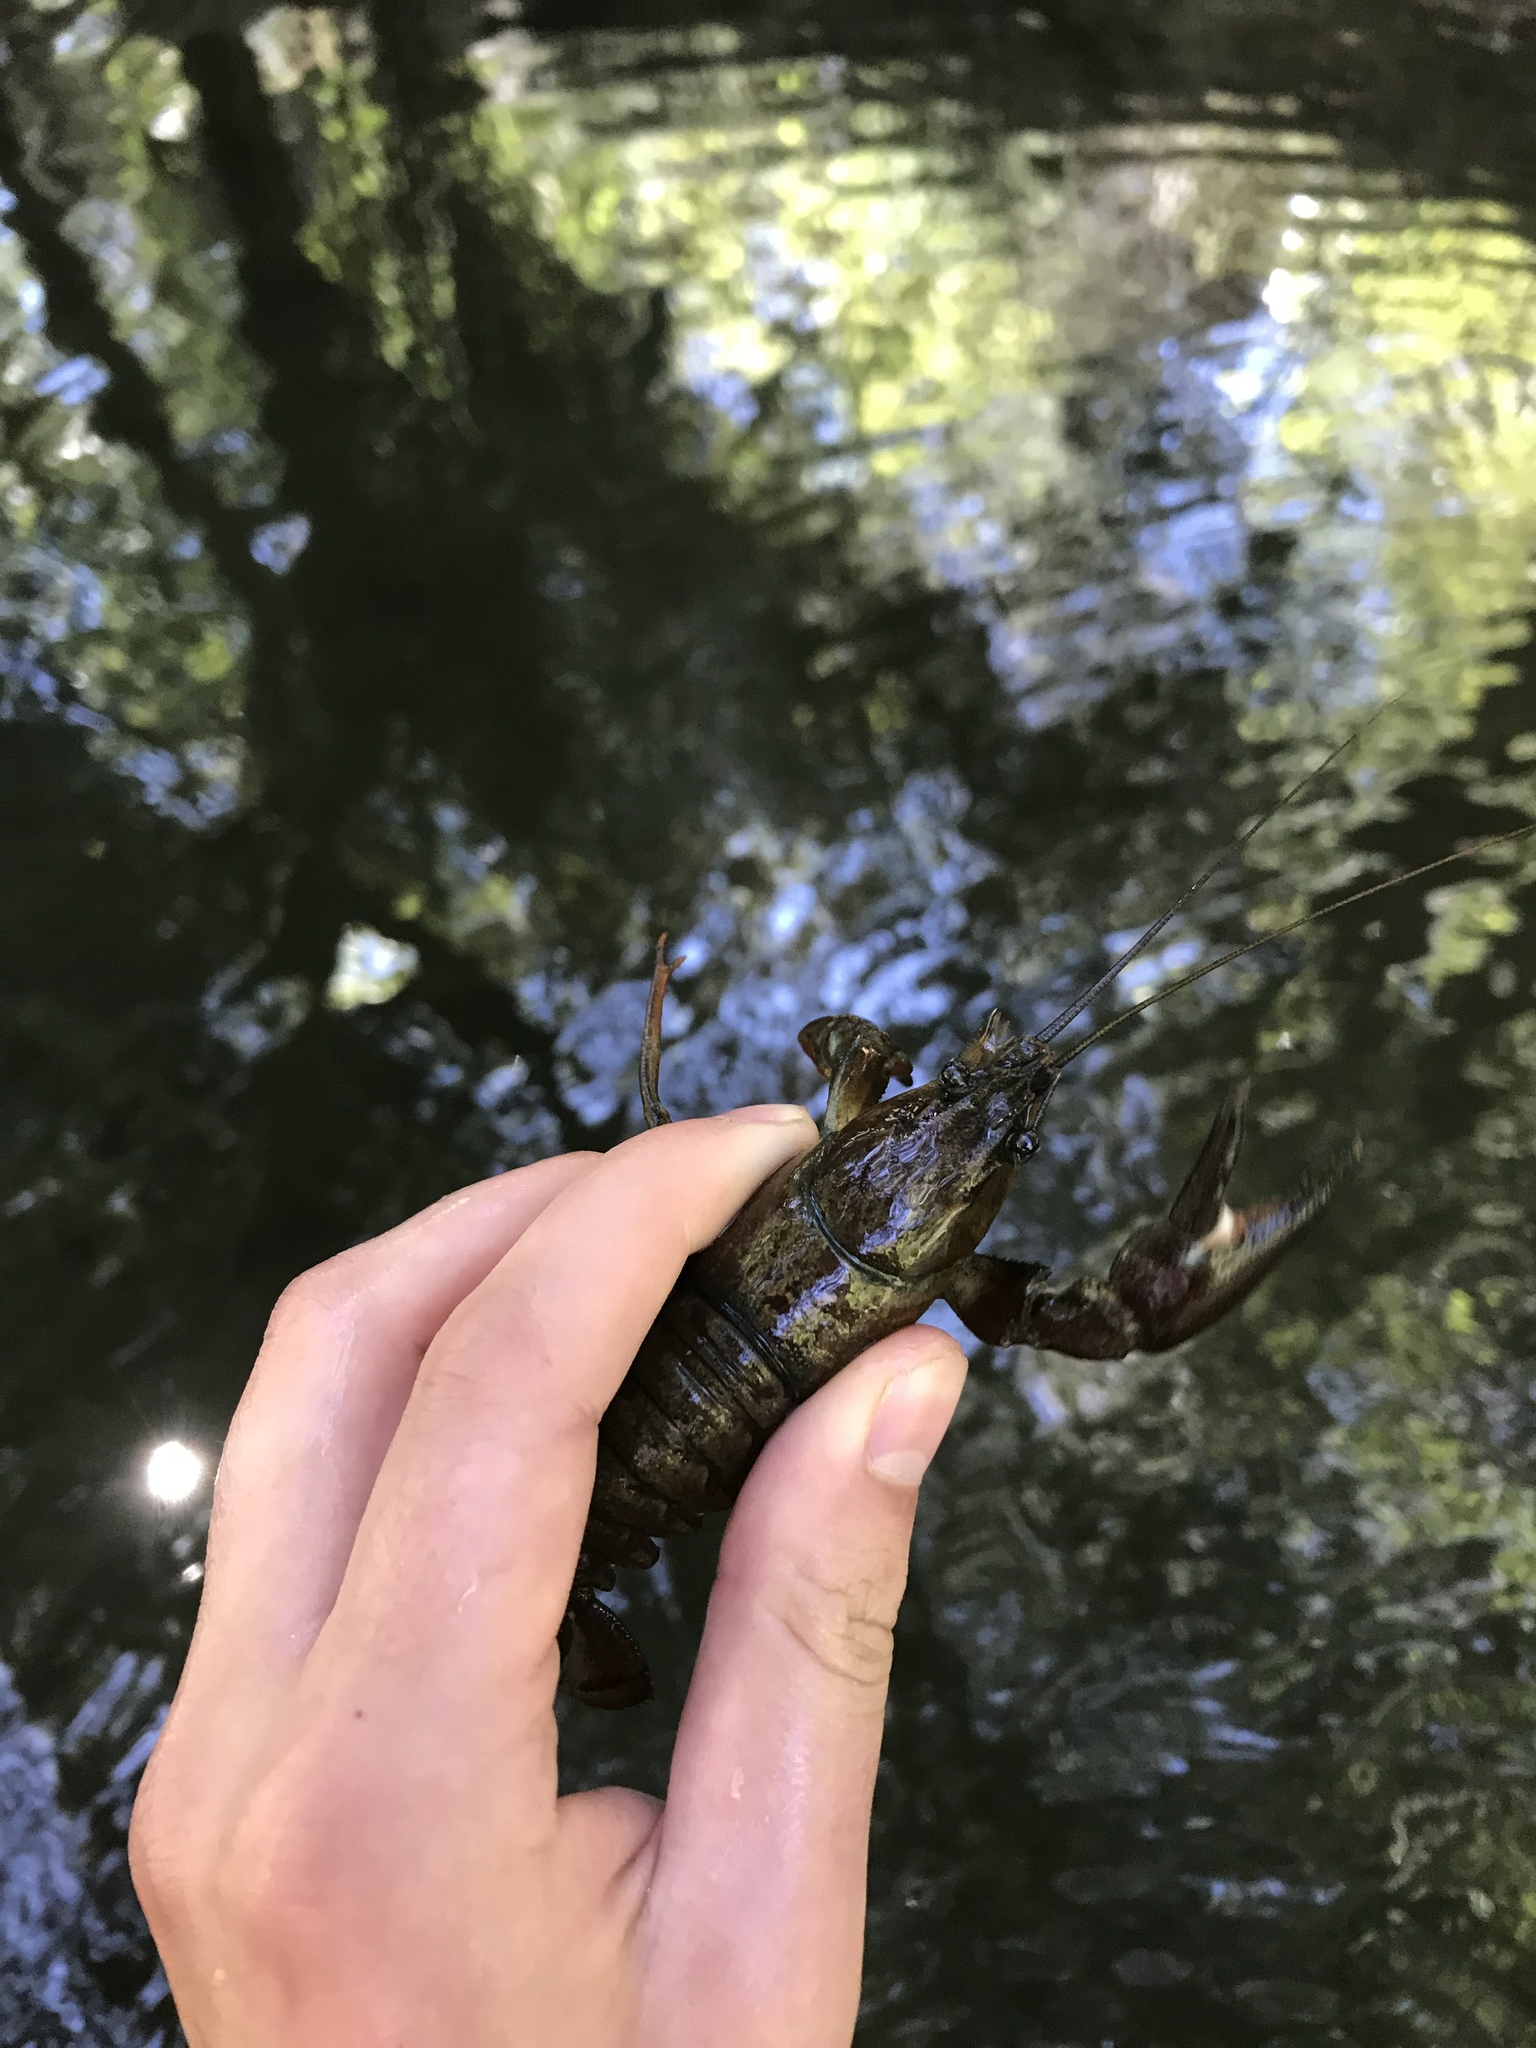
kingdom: Animalia
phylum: Arthropoda
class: Malacostraca
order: Decapoda
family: Astacidae
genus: Pacifastacus
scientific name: Pacifastacus leniusculus
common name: Signal crayfish
